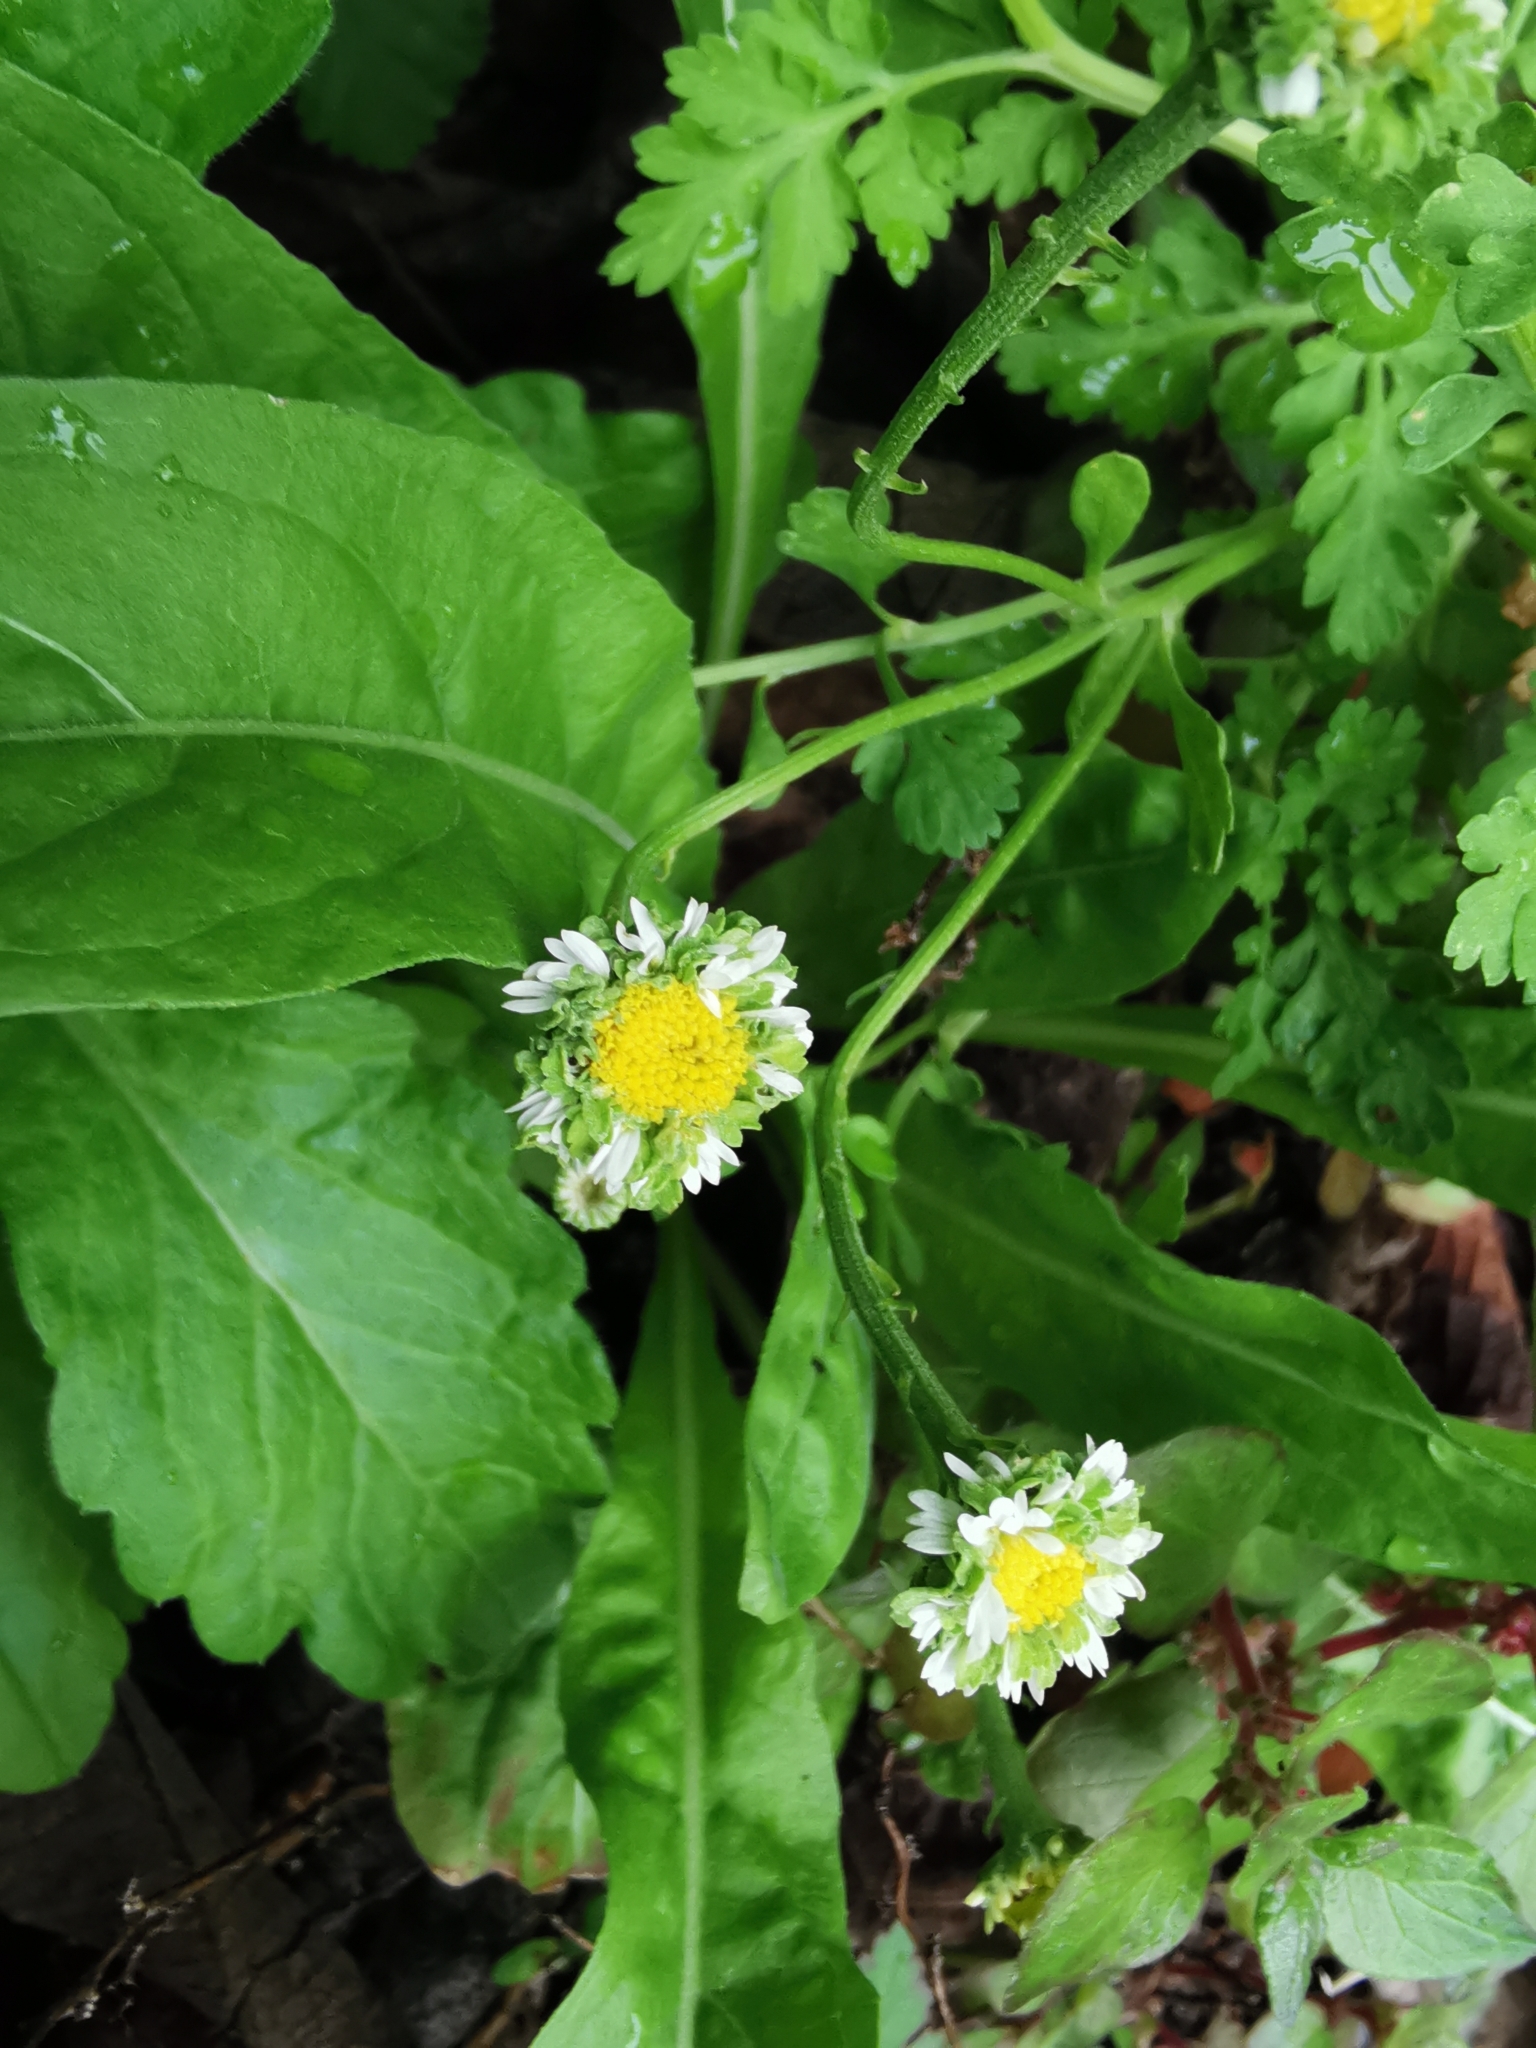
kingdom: Plantae
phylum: Tracheophyta
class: Magnoliopsida
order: Asterales
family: Asteraceae
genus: Tanacetum
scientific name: Tanacetum parthenium
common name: Feverfew
